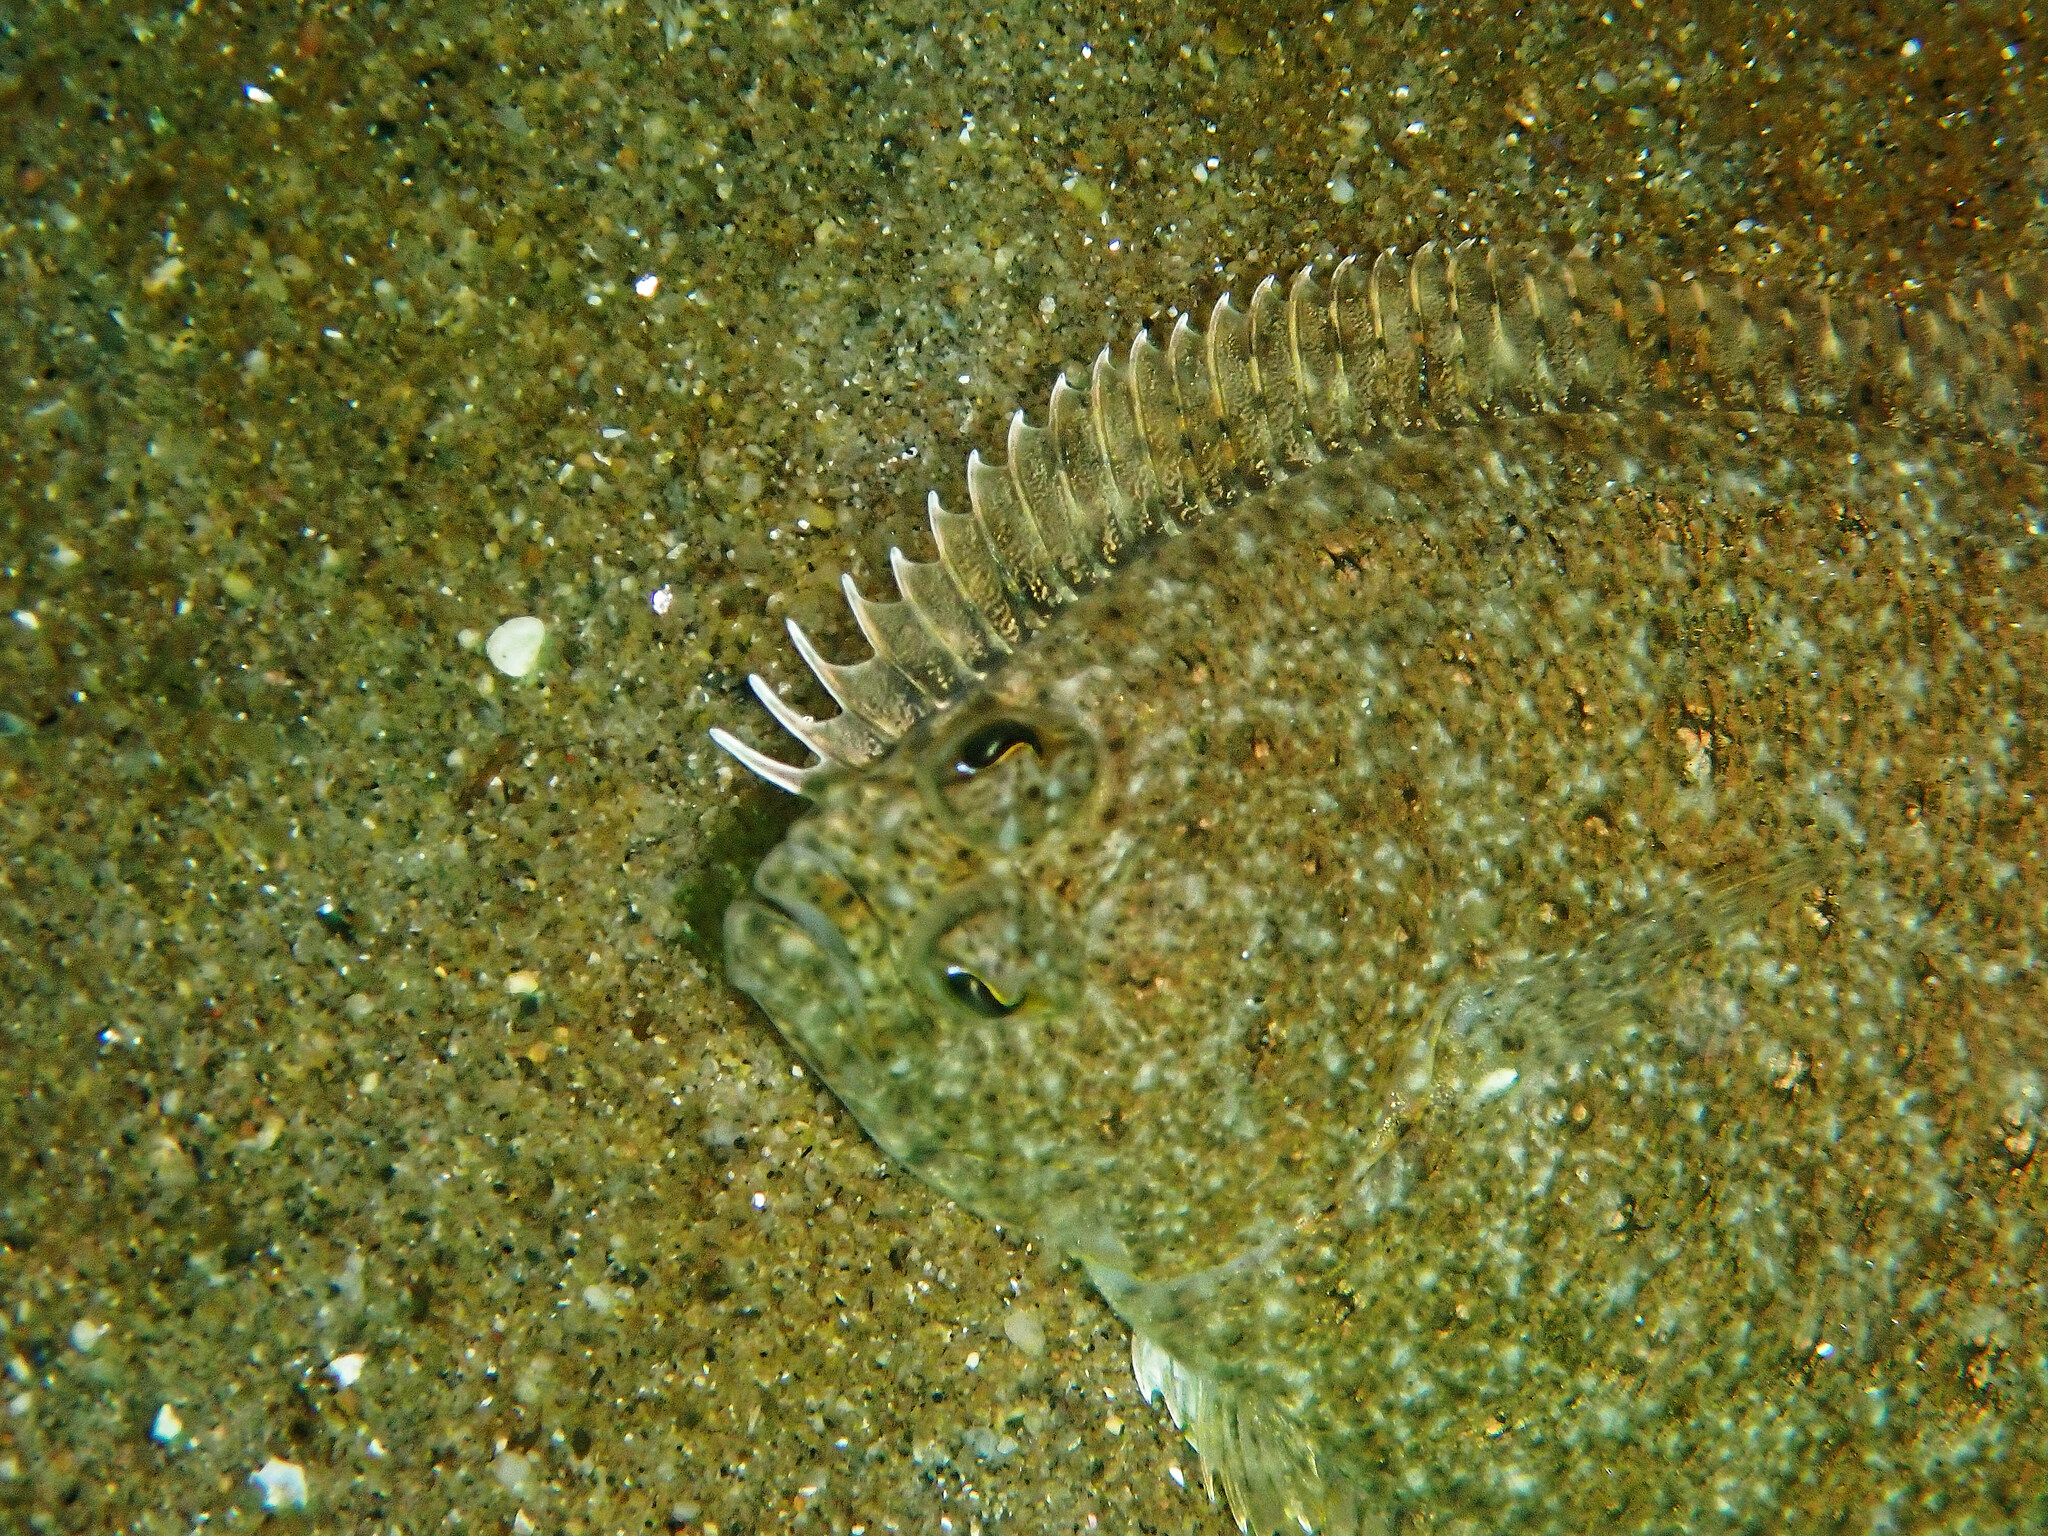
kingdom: Animalia
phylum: Chordata
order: Pleuronectiformes
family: Paralichthyidae
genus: Citharichthys
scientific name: Citharichthys stigmaeus
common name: Speckled sanddab
